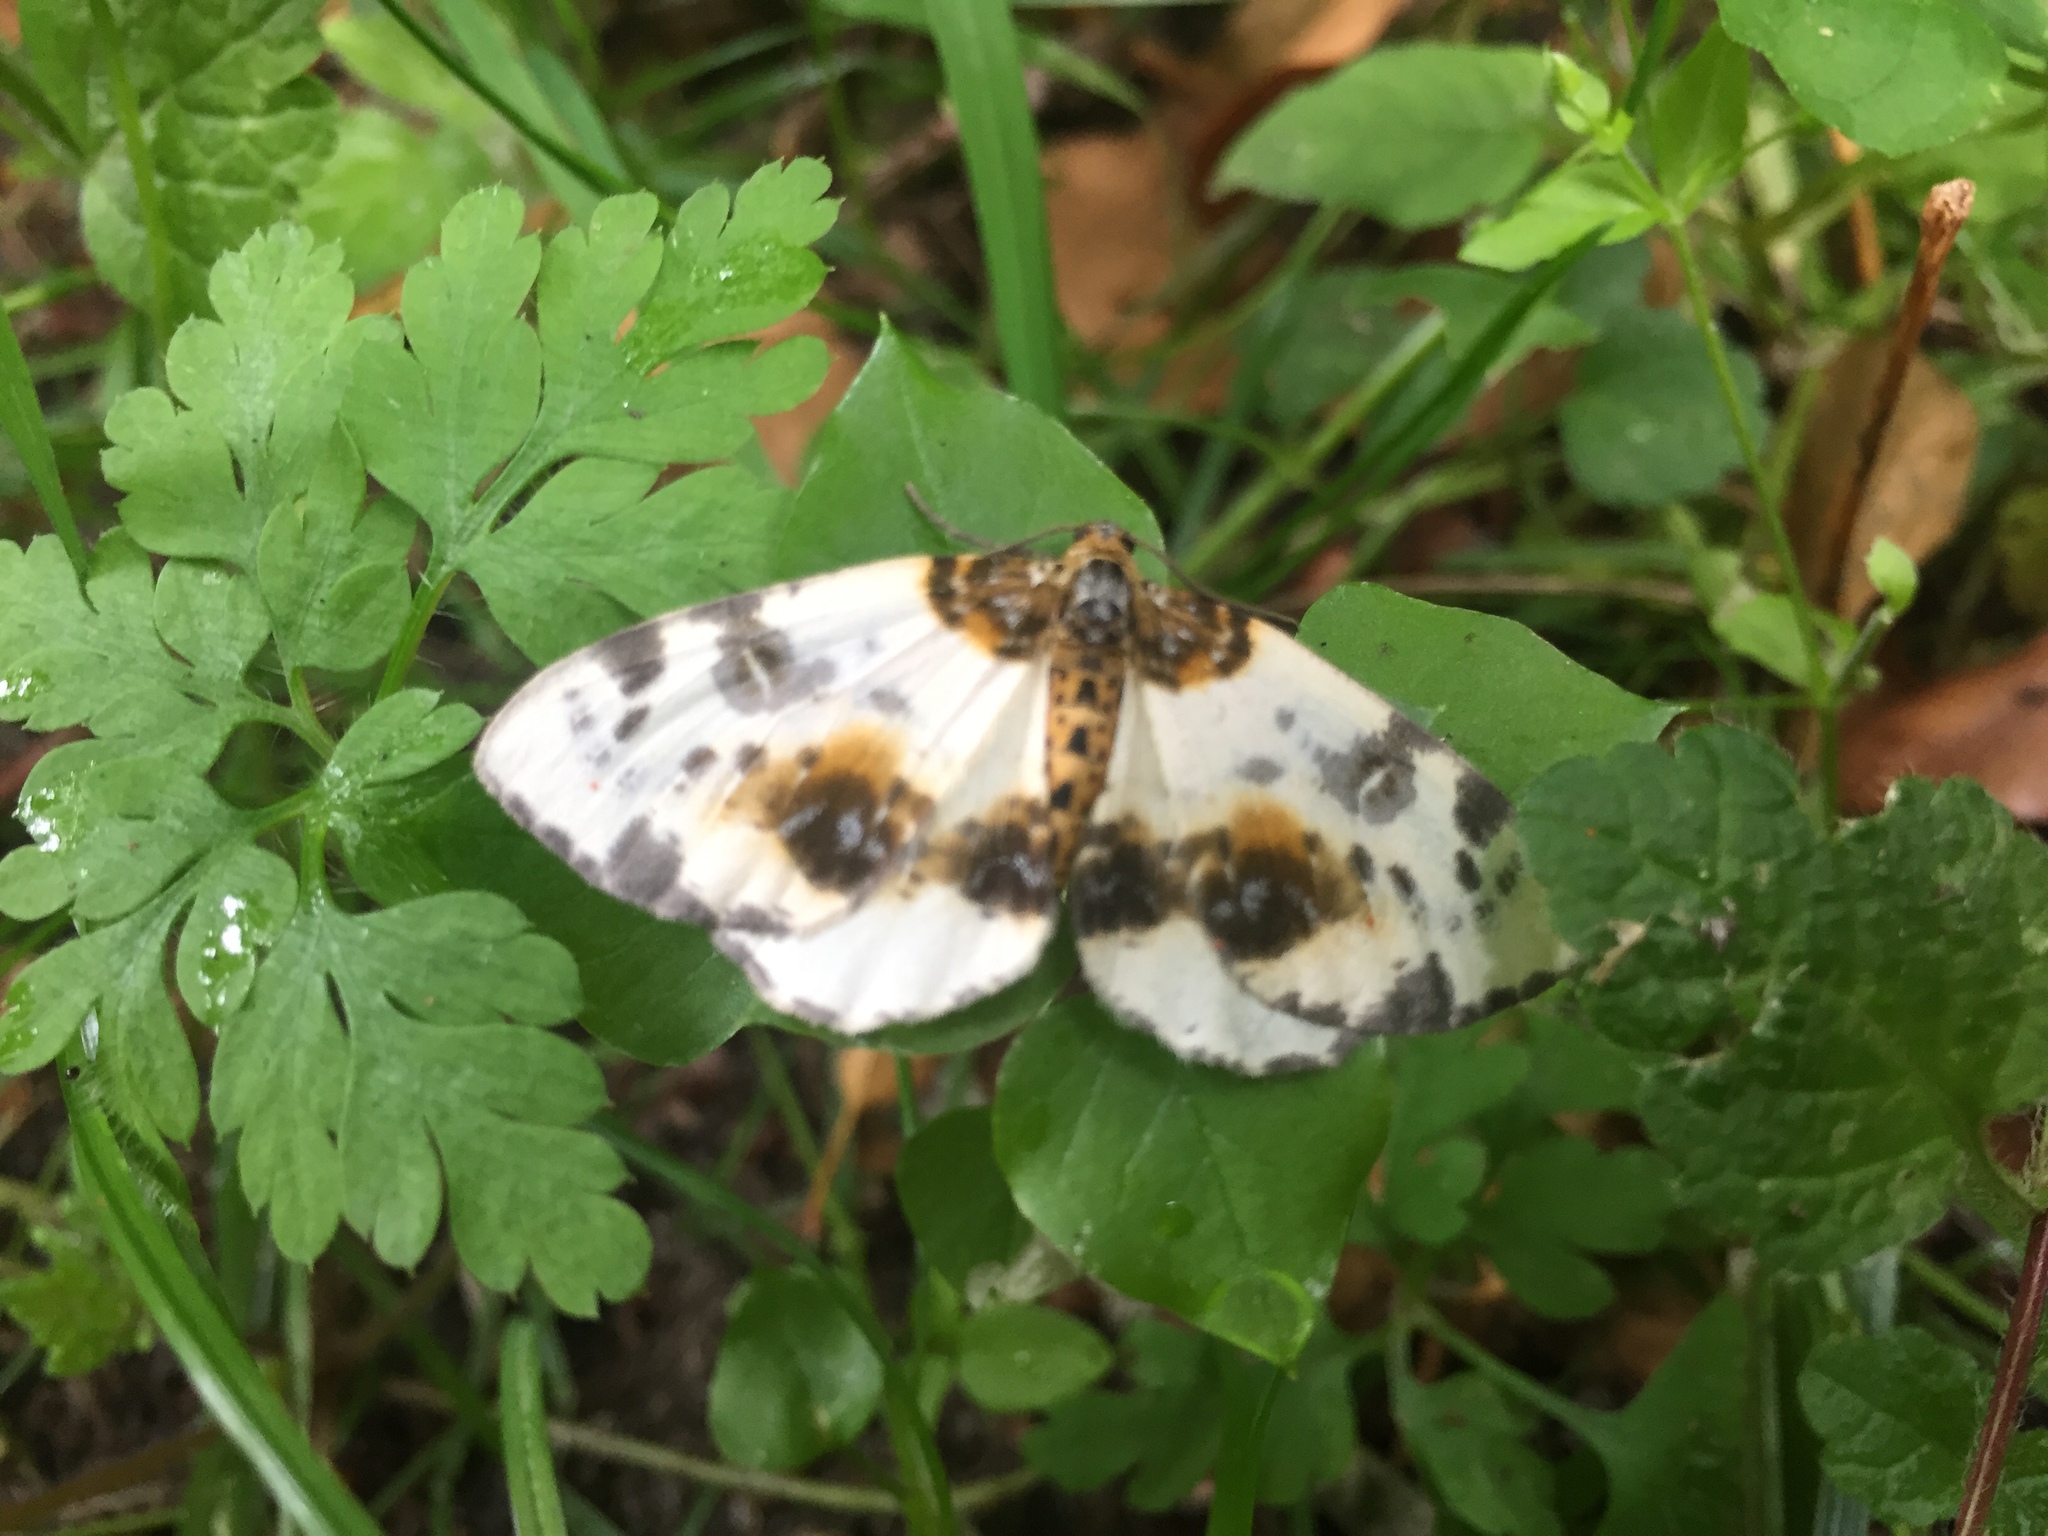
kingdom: Animalia
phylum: Arthropoda
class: Insecta
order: Lepidoptera
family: Geometridae
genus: Abraxas
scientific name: Abraxas sylvata
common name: Clouded magpie
